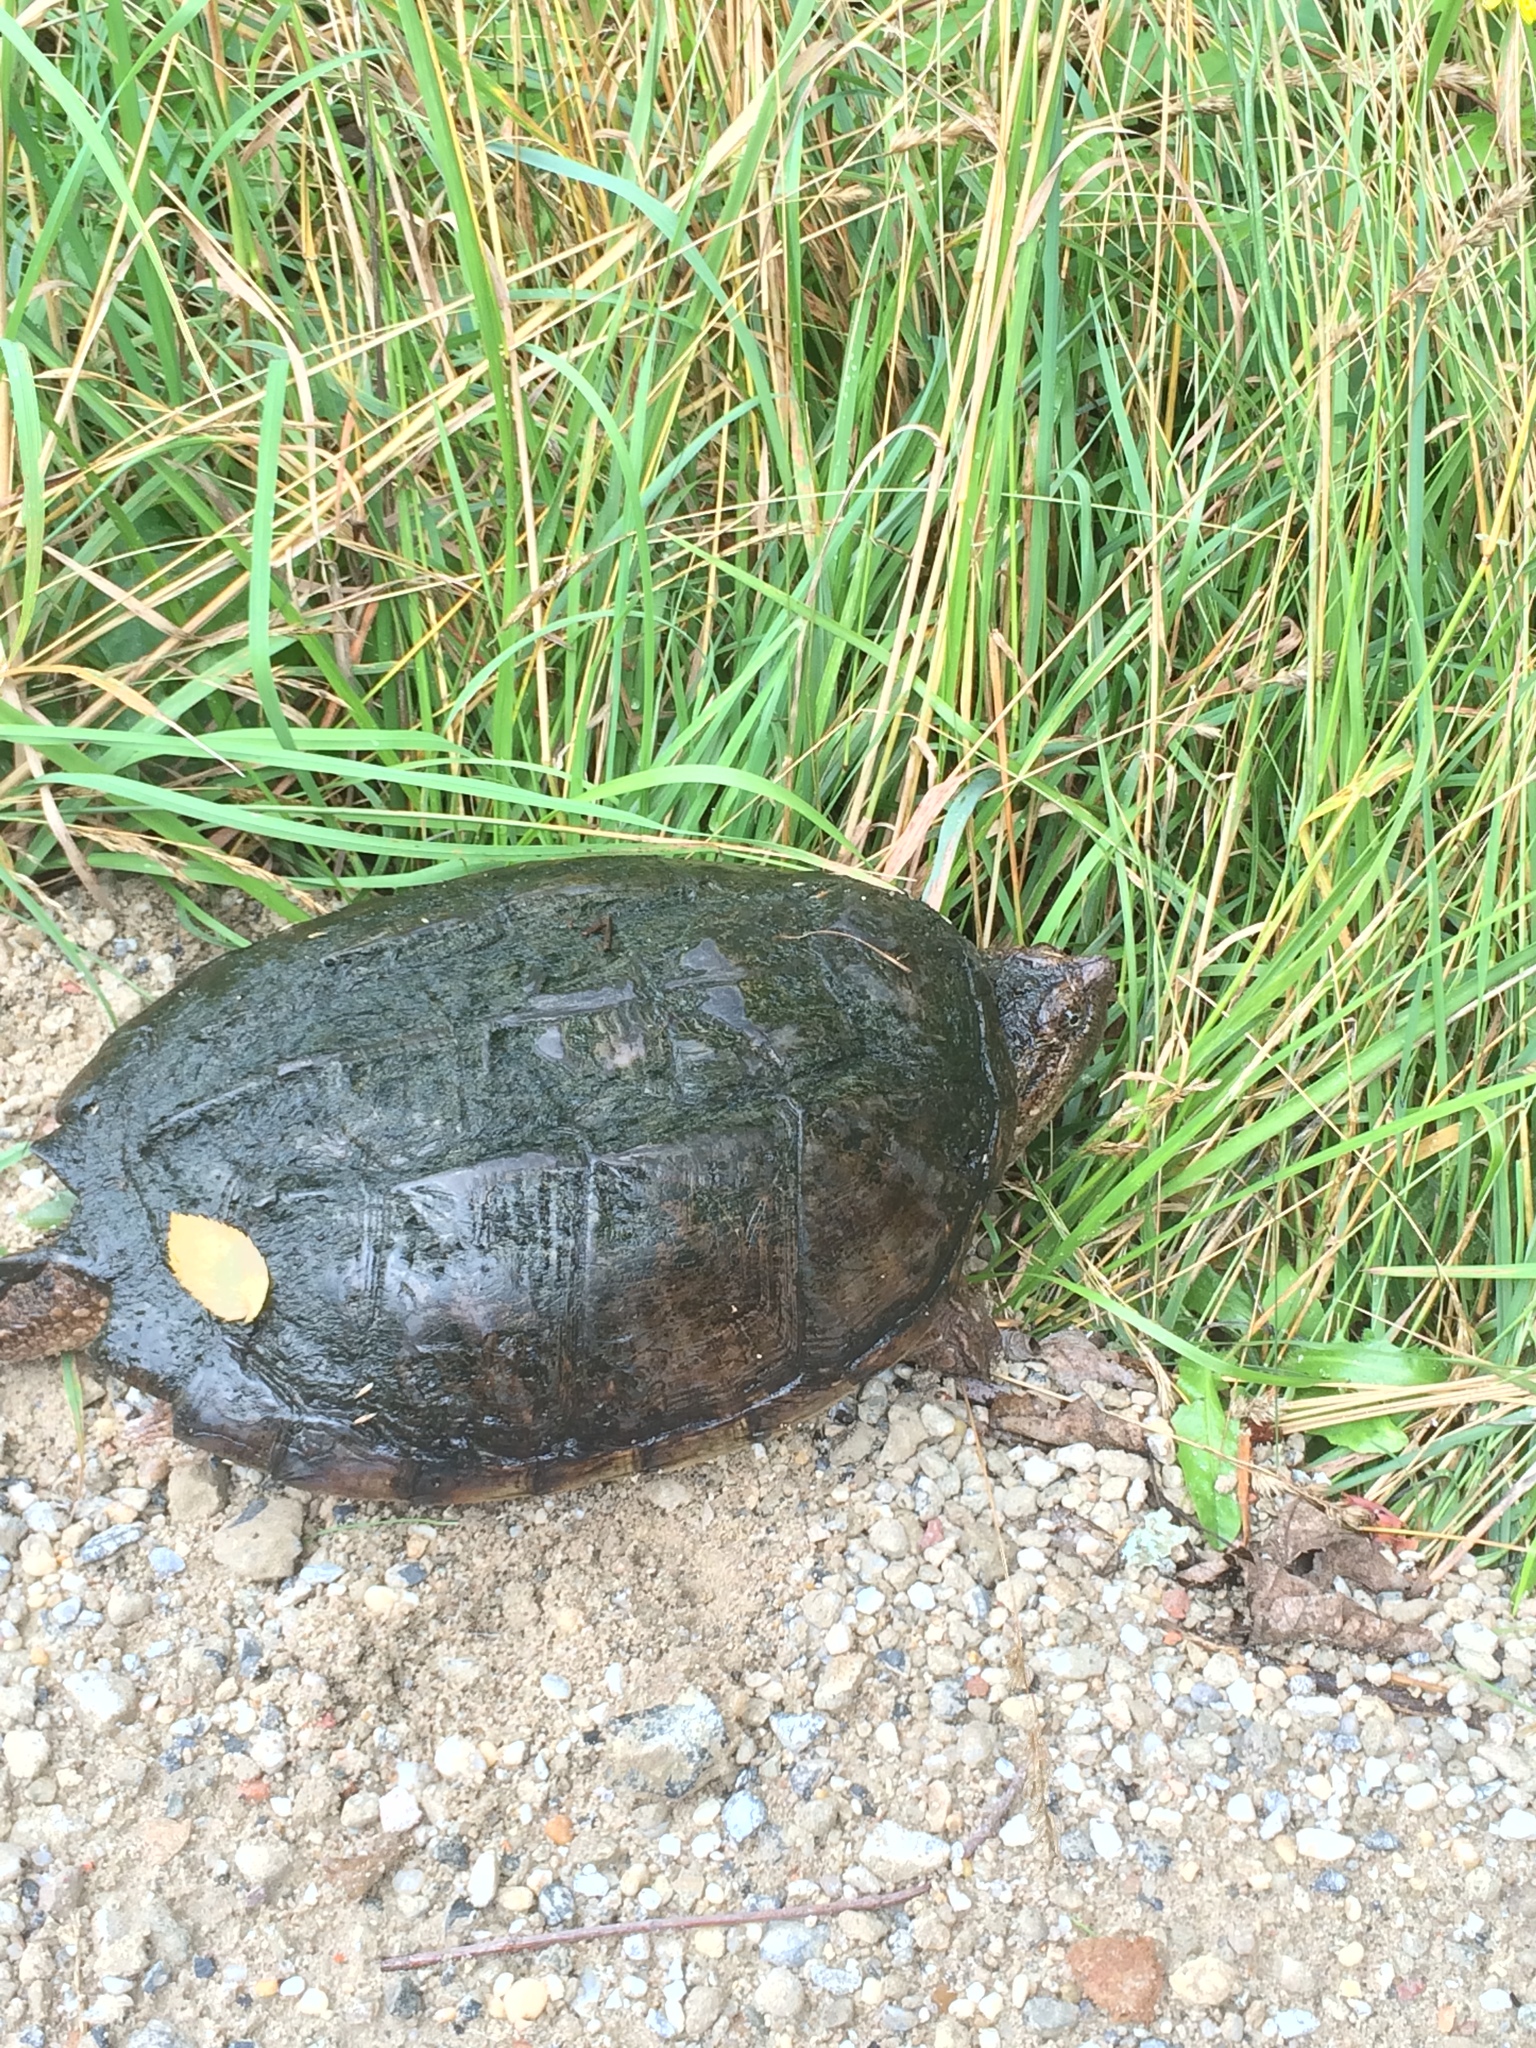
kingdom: Animalia
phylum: Chordata
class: Testudines
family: Chelydridae
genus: Chelydra
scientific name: Chelydra serpentina
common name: Common snapping turtle
